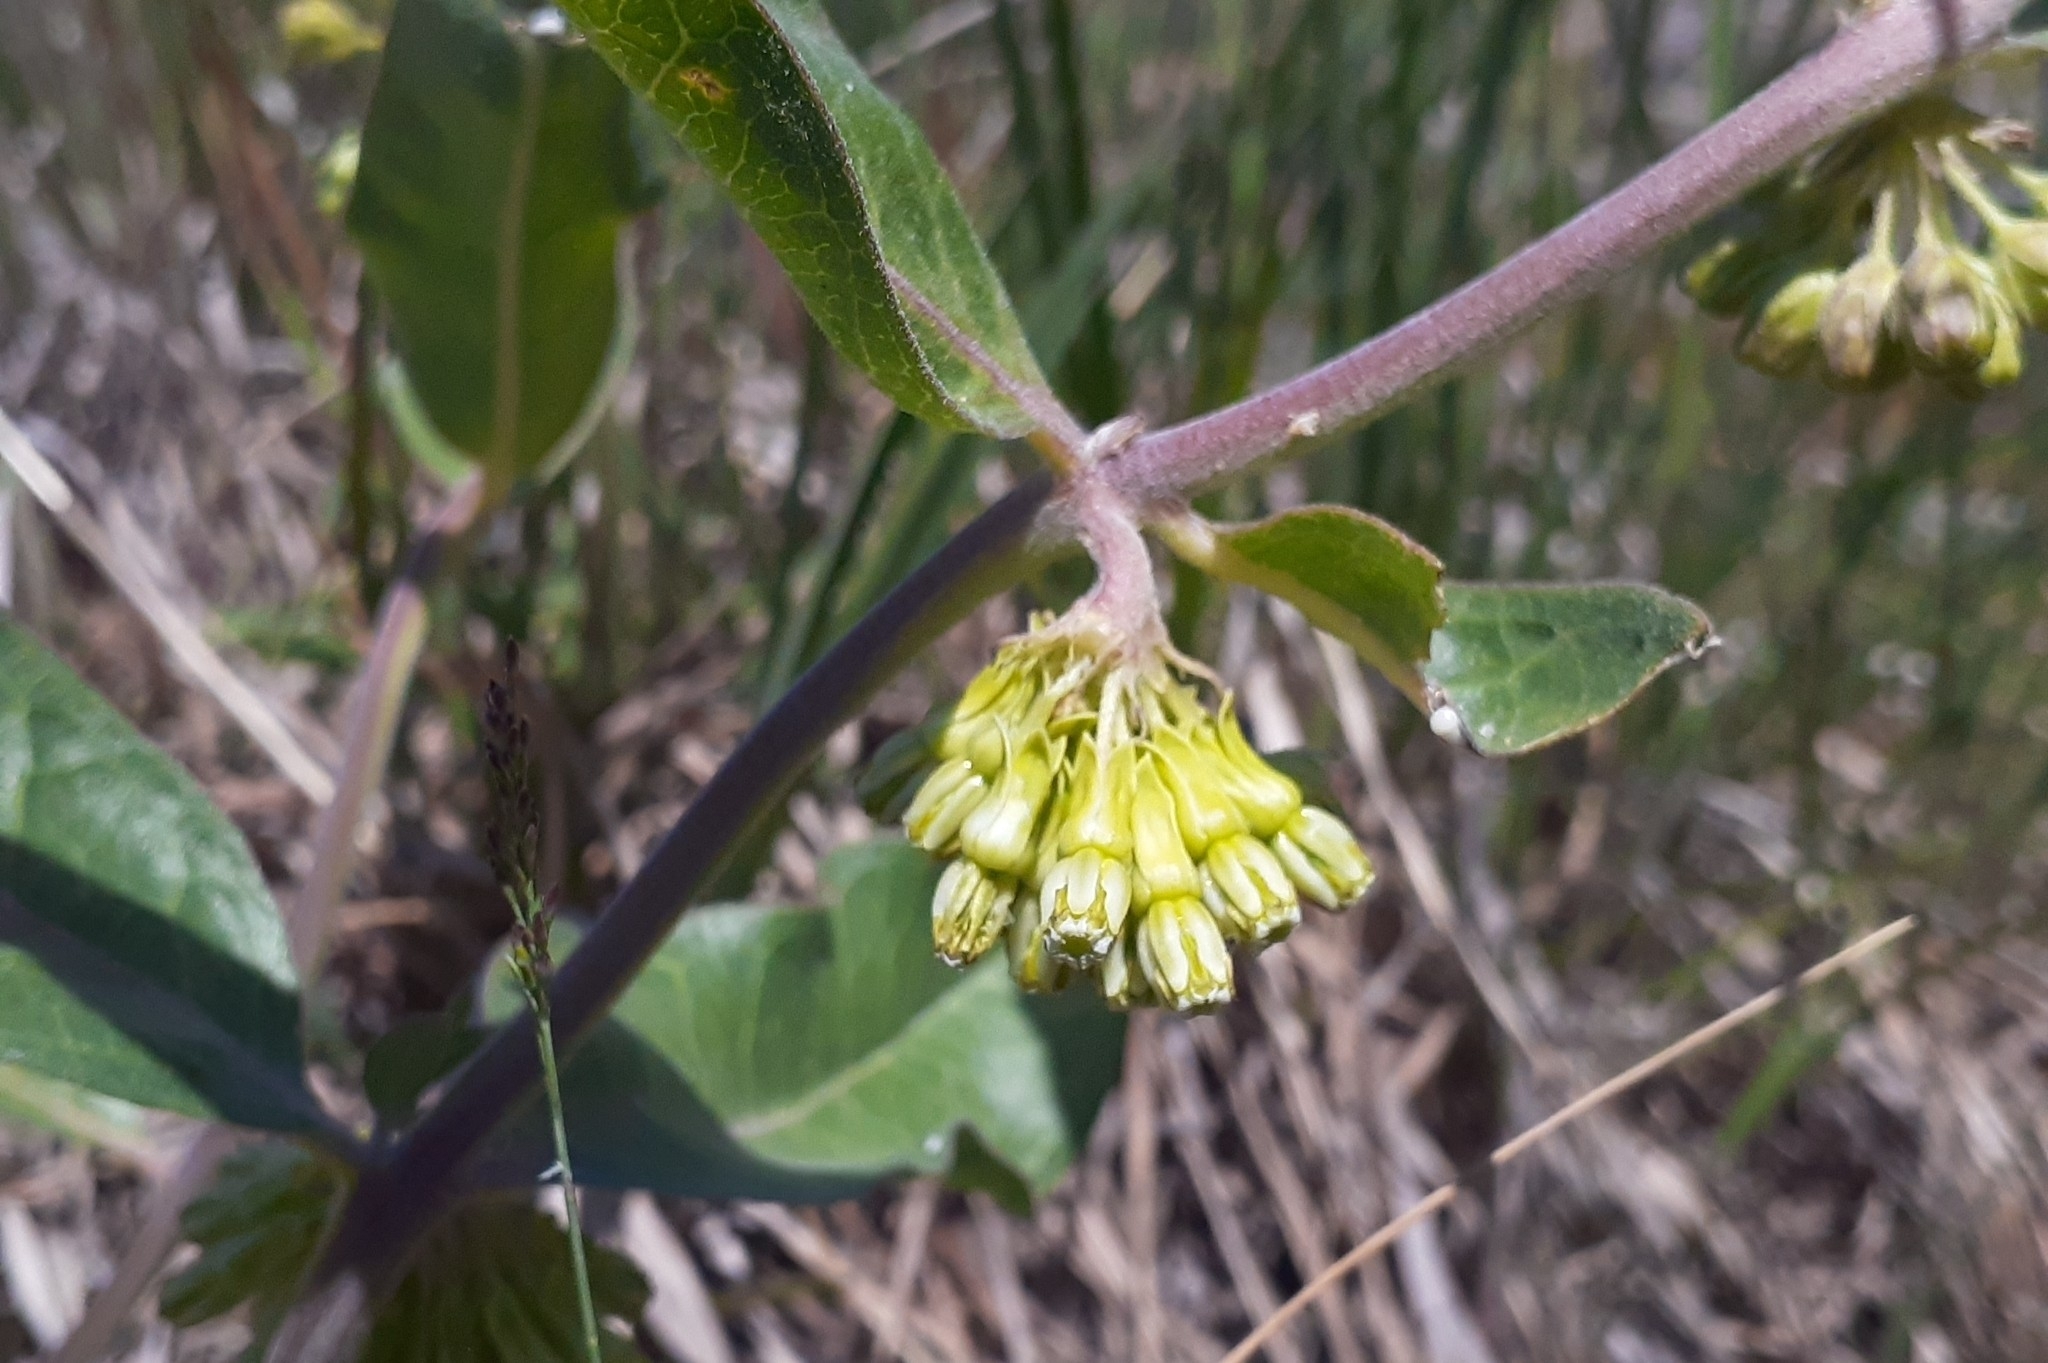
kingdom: Plantae
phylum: Tracheophyta
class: Magnoliopsida
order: Gentianales
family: Apocynaceae
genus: Asclepias
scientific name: Asclepias viridiflora
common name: Green comet milkweed
